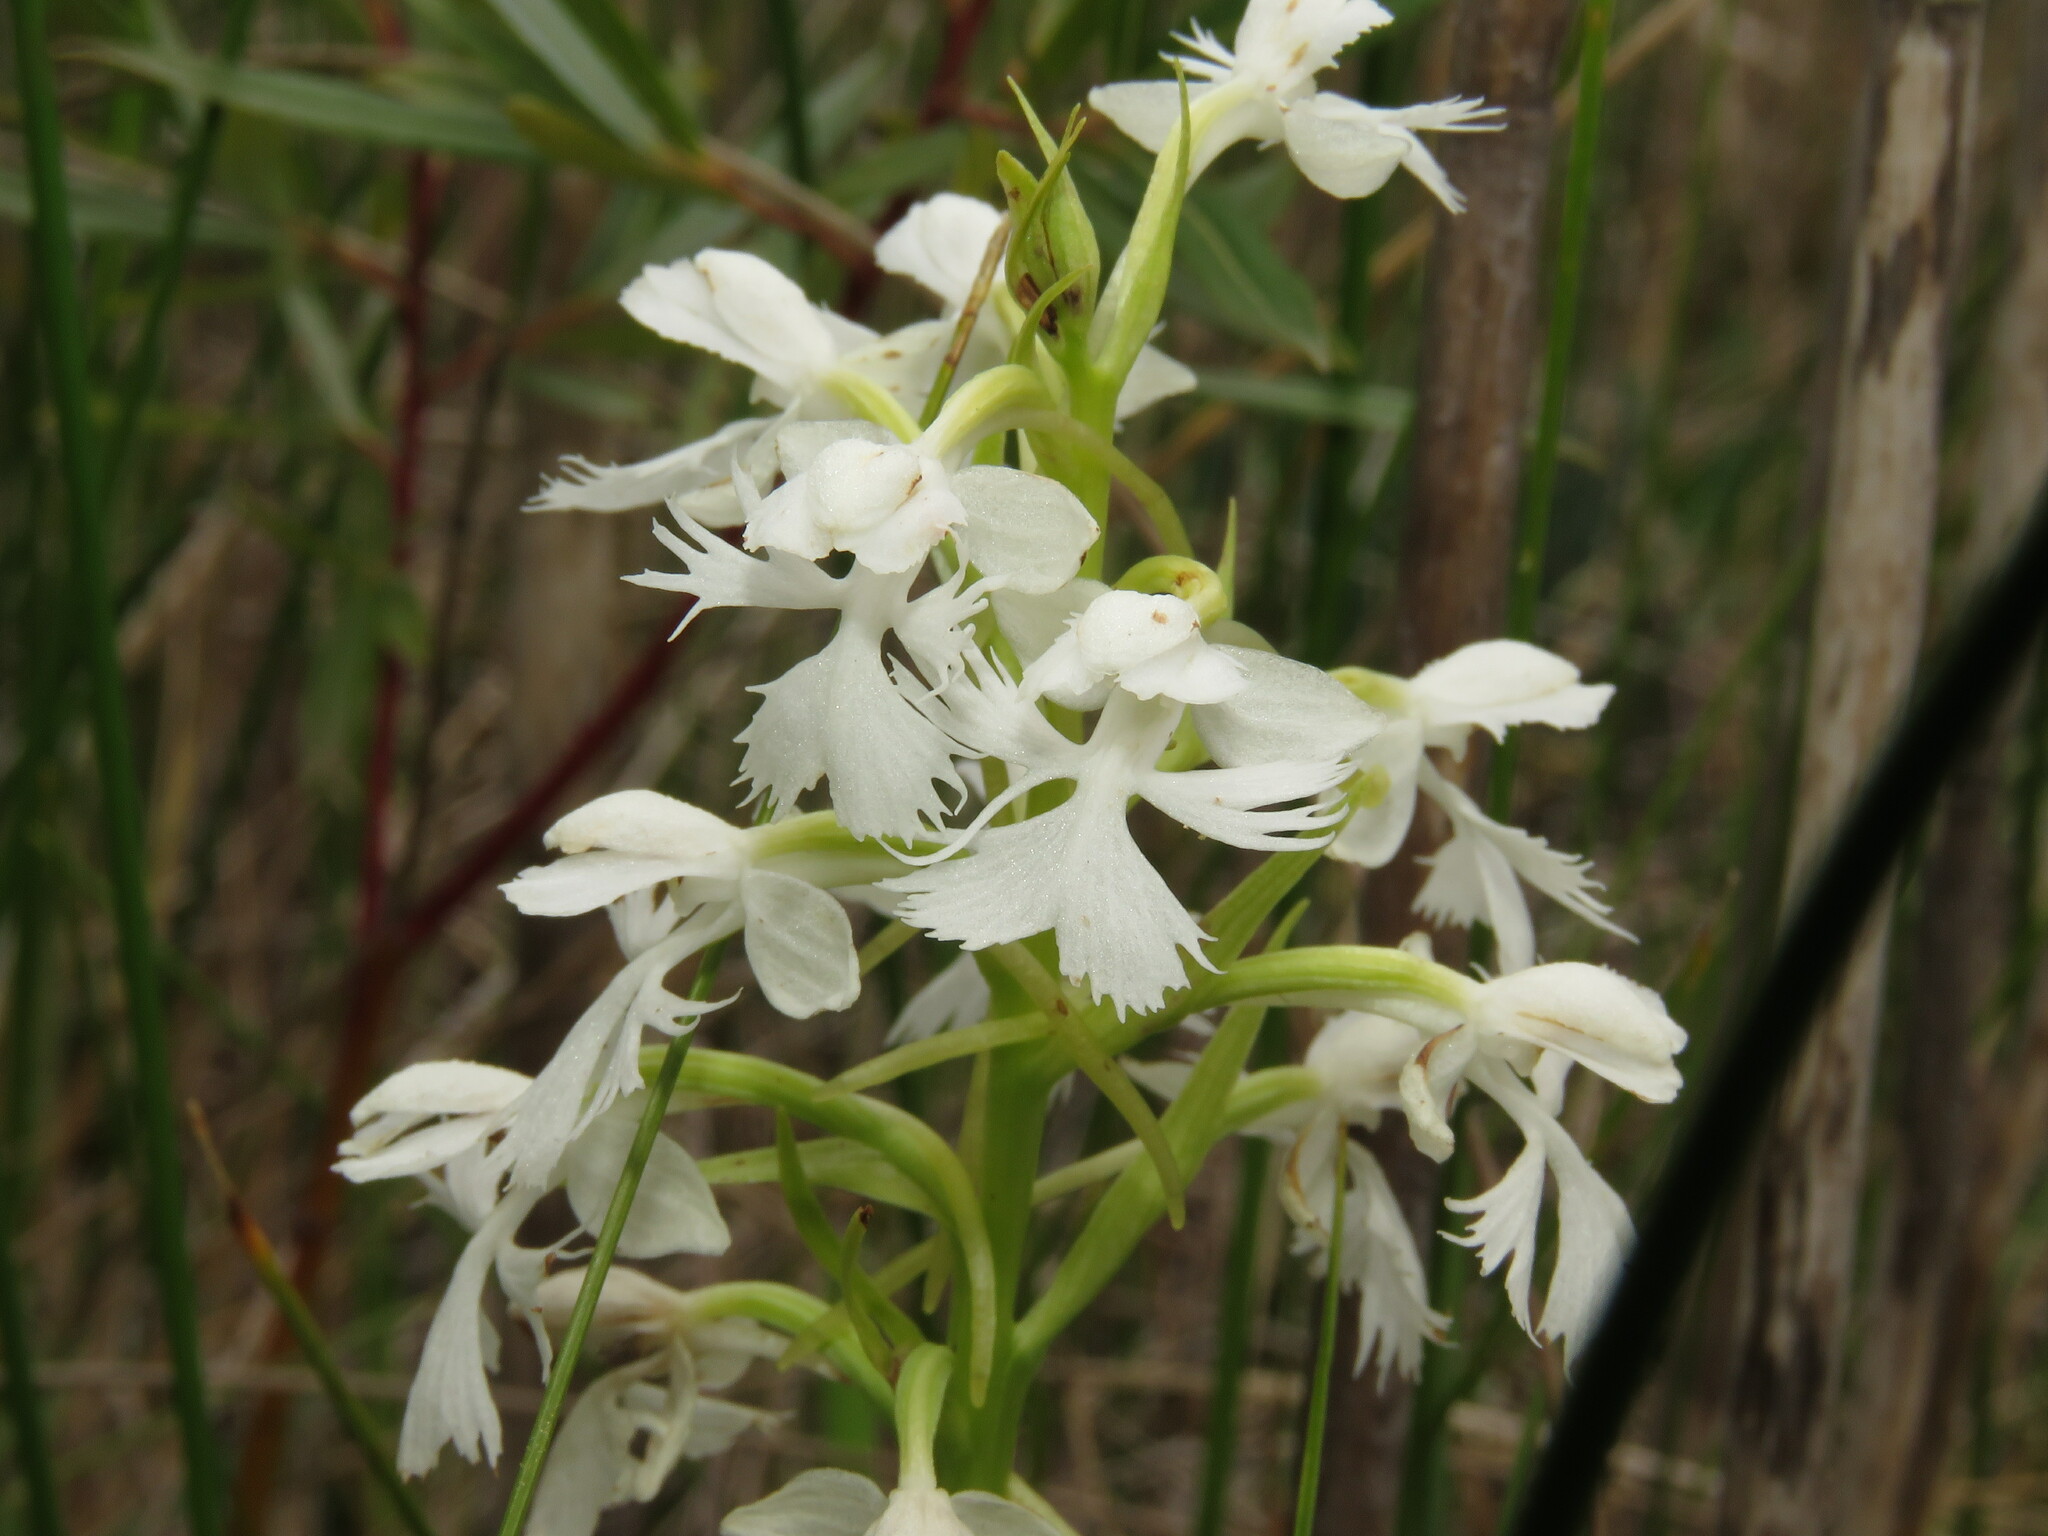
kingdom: Plantae
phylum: Tracheophyta
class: Liliopsida
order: Asparagales
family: Orchidaceae
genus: Platanthera
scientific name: Platanthera psycodes
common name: Lesser purple fringed orchid
